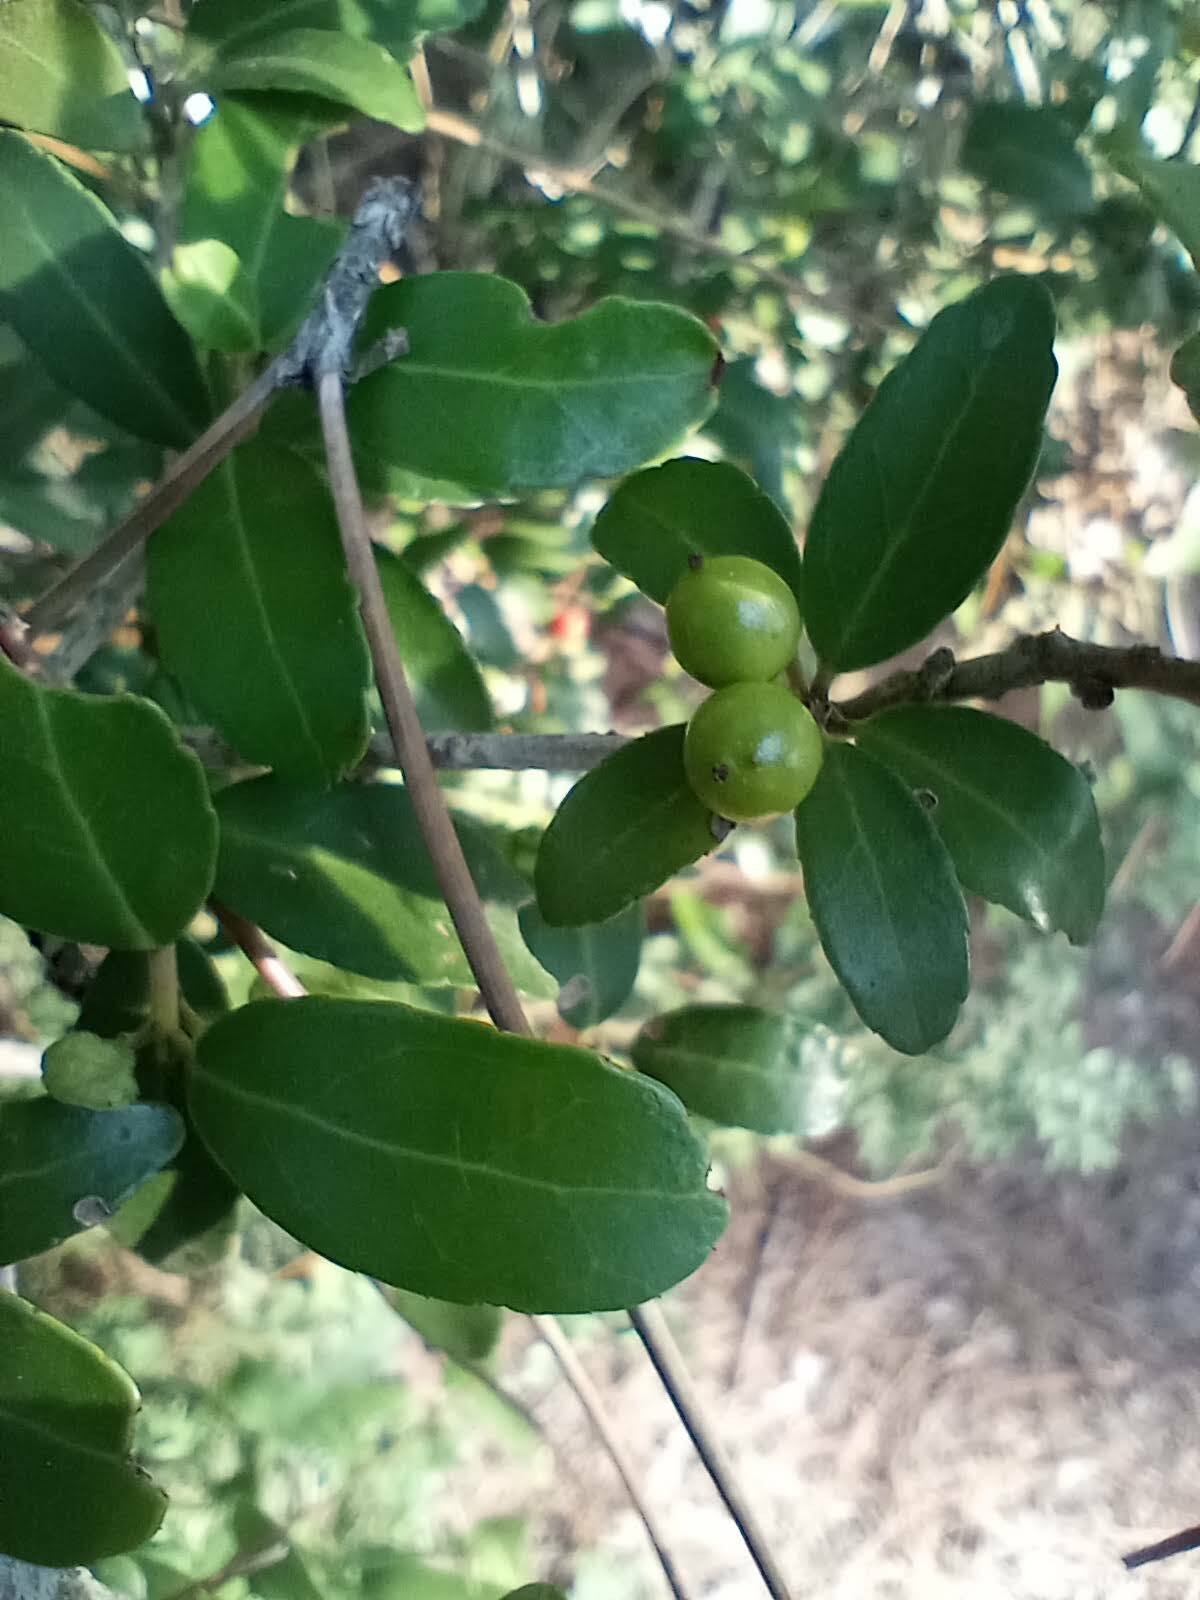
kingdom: Plantae
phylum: Tracheophyta
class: Magnoliopsida
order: Aquifoliales
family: Aquifoliaceae
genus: Ilex
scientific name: Ilex vomitoria
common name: Yaupon holly
